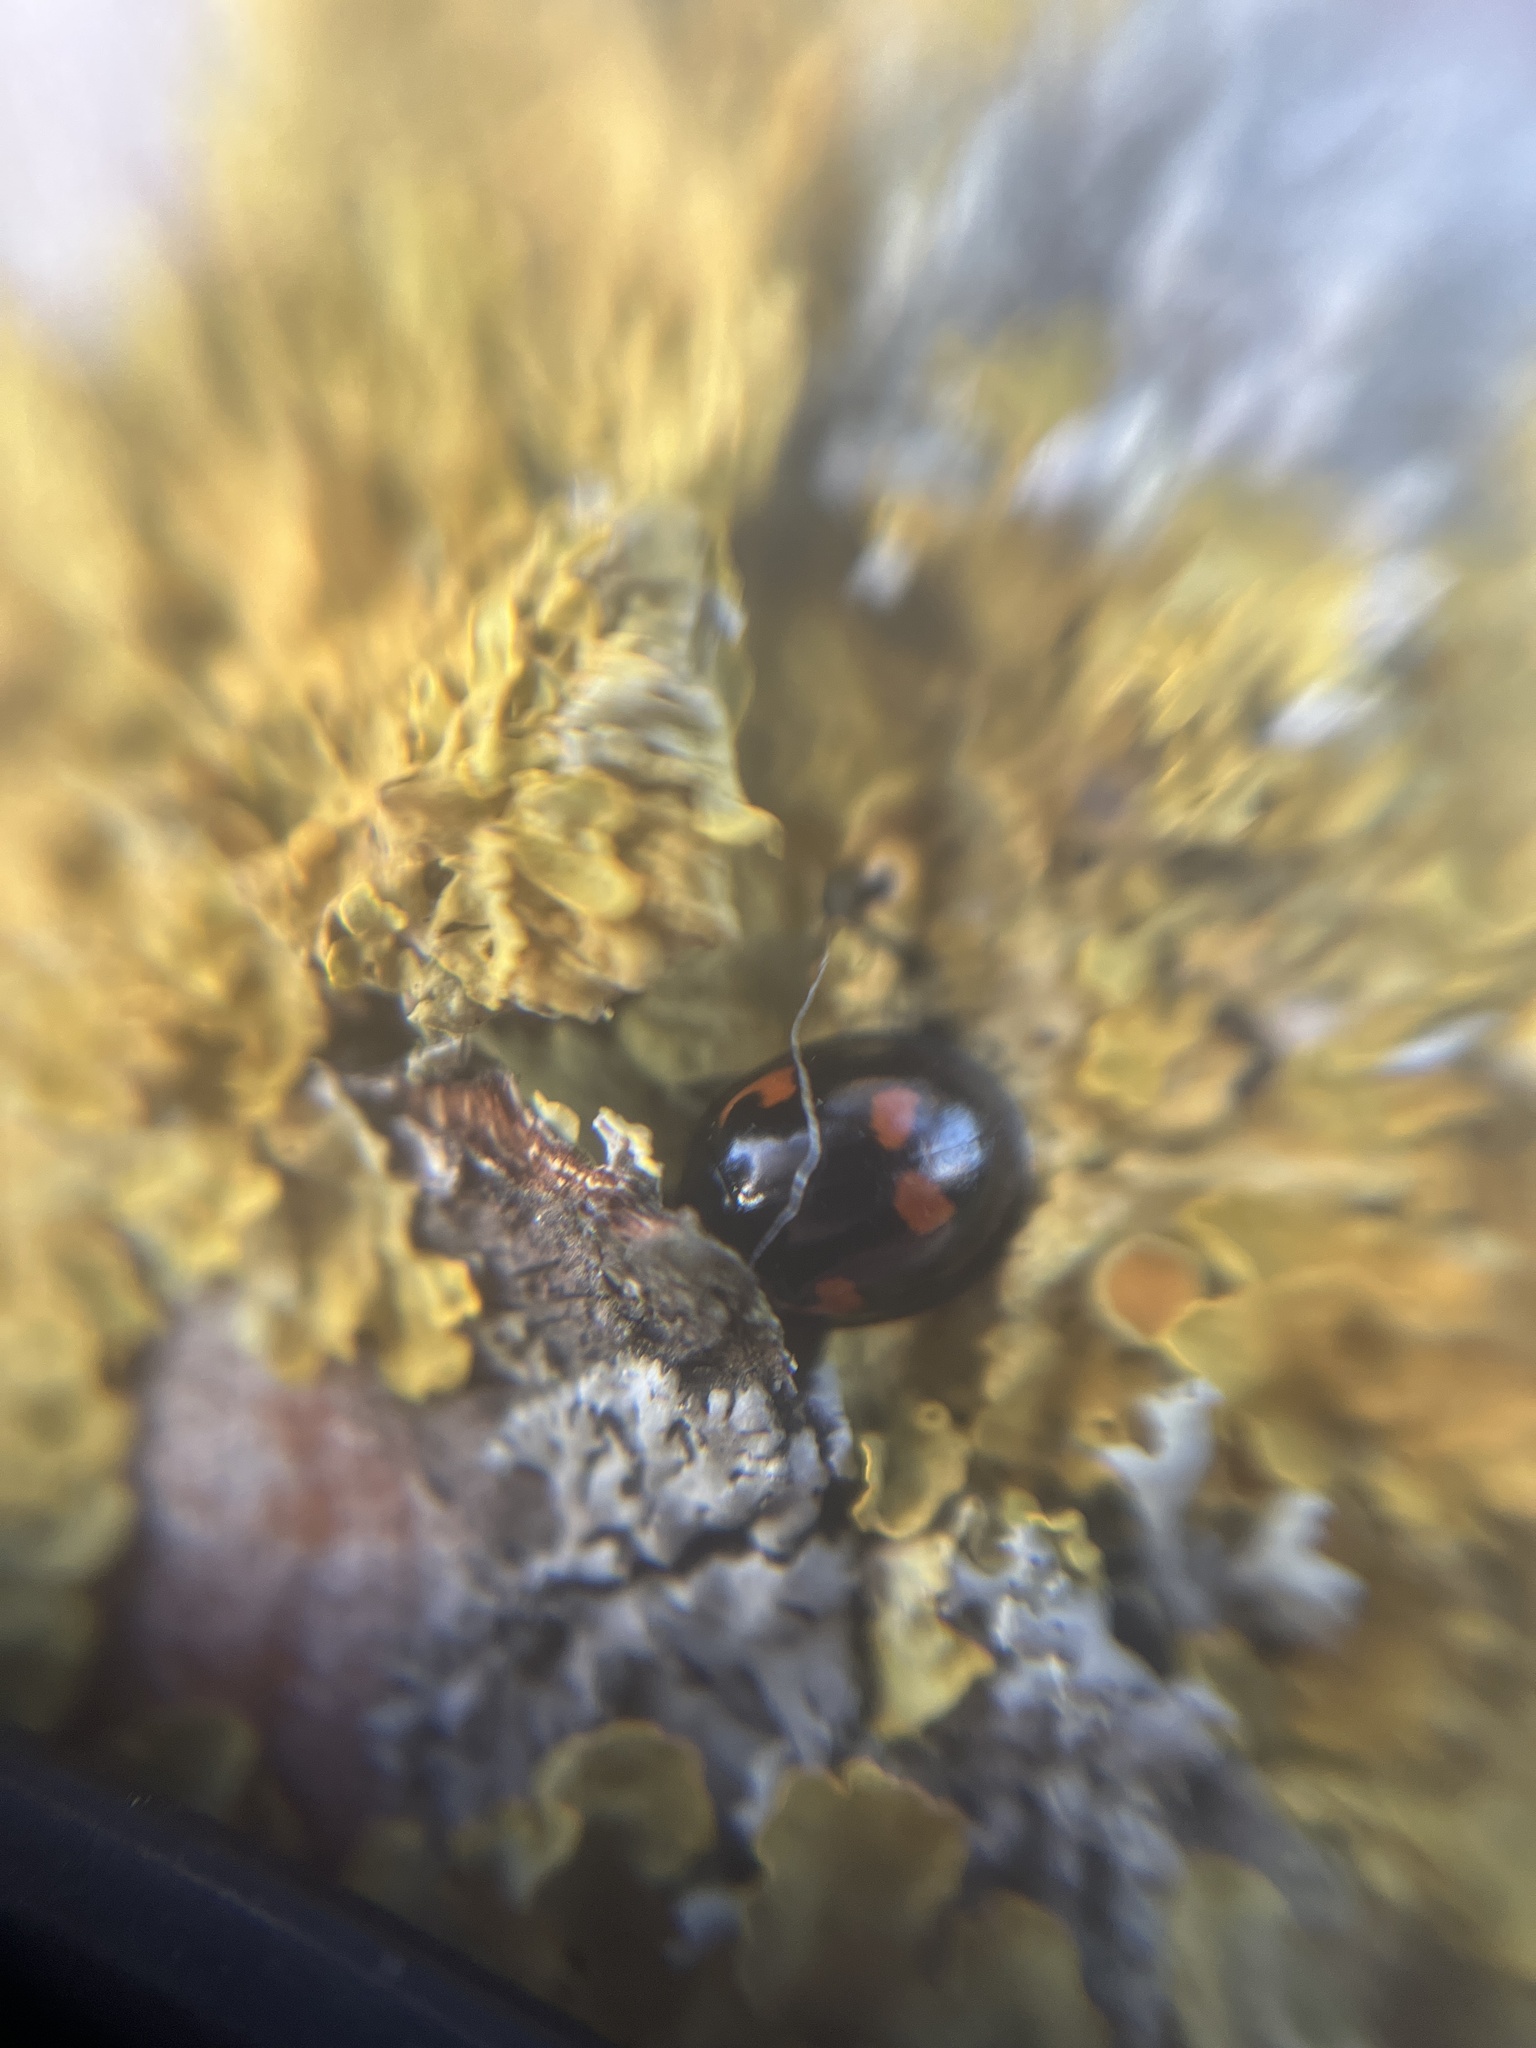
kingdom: Animalia
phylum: Arthropoda
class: Insecta
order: Coleoptera
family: Coccinellidae
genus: Brumus
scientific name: Brumus quadripustulatus
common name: Ladybird beetle
